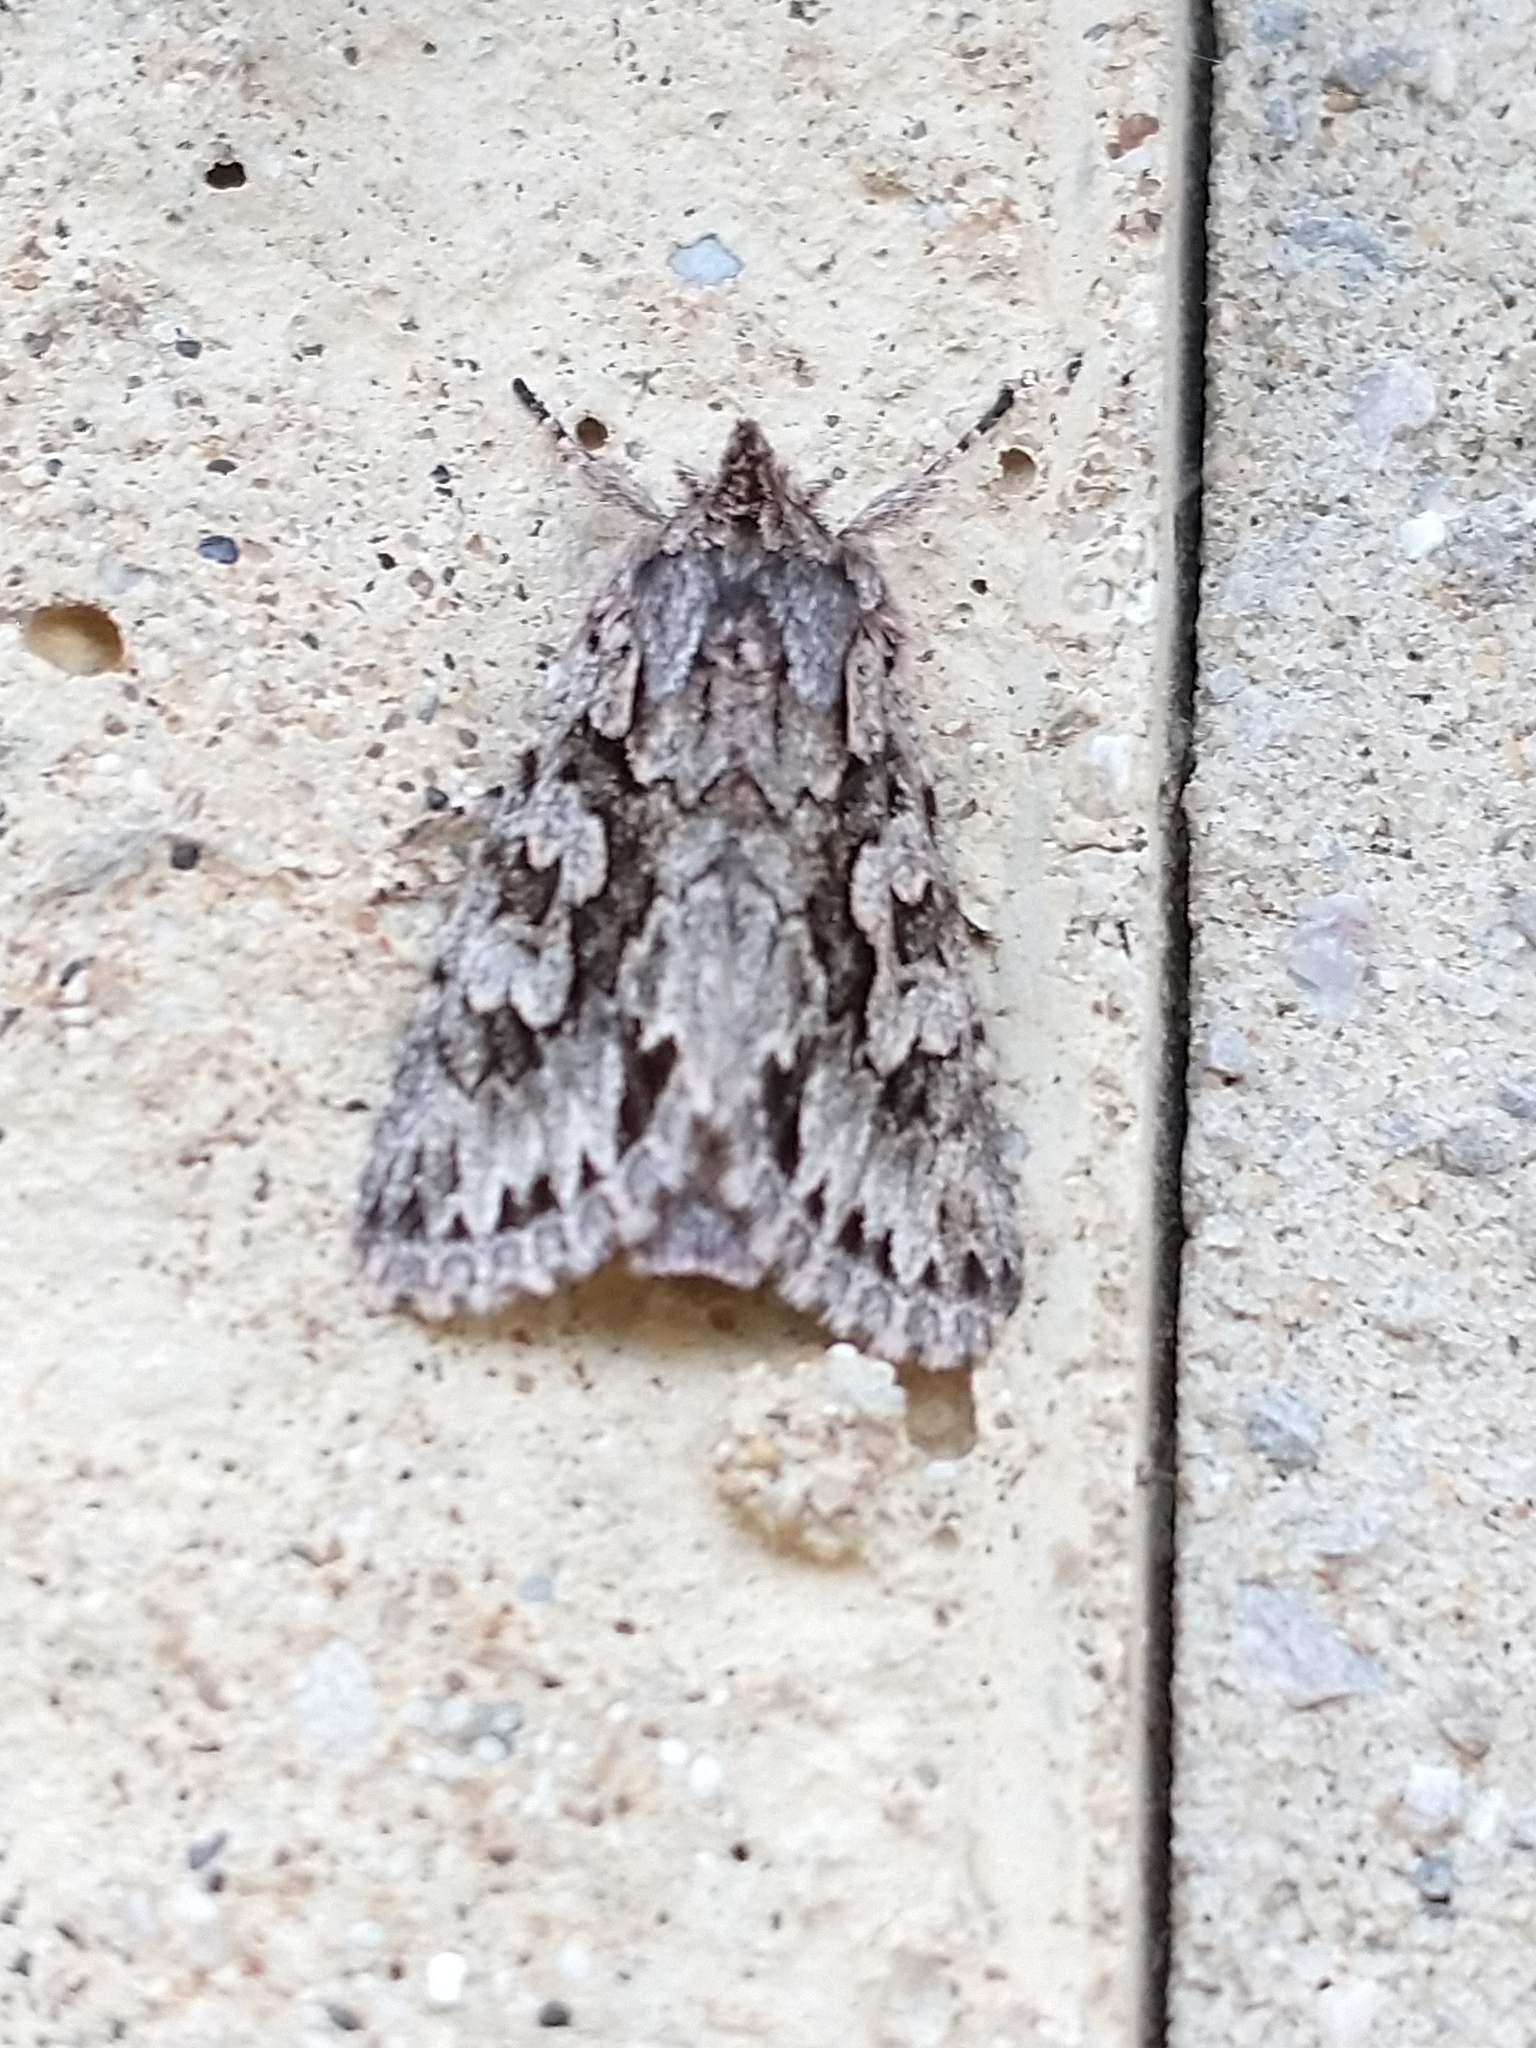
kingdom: Animalia
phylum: Arthropoda
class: Insecta
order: Lepidoptera
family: Noctuidae
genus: Xylocampa
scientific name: Xylocampa areola
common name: Early grey
